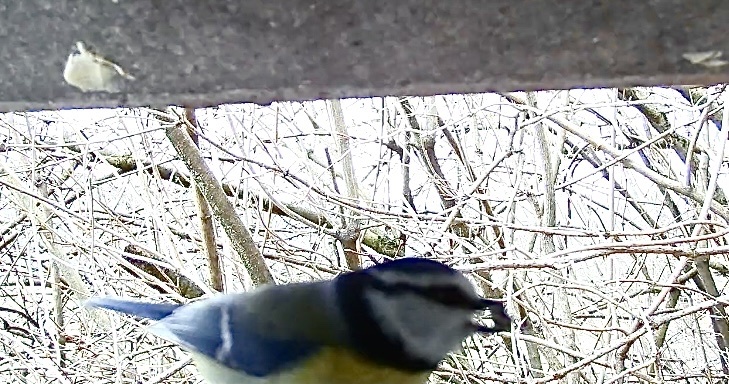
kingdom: Animalia
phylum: Chordata
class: Aves
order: Passeriformes
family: Paridae
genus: Cyanistes
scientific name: Cyanistes caeruleus
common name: Eurasian blue tit
